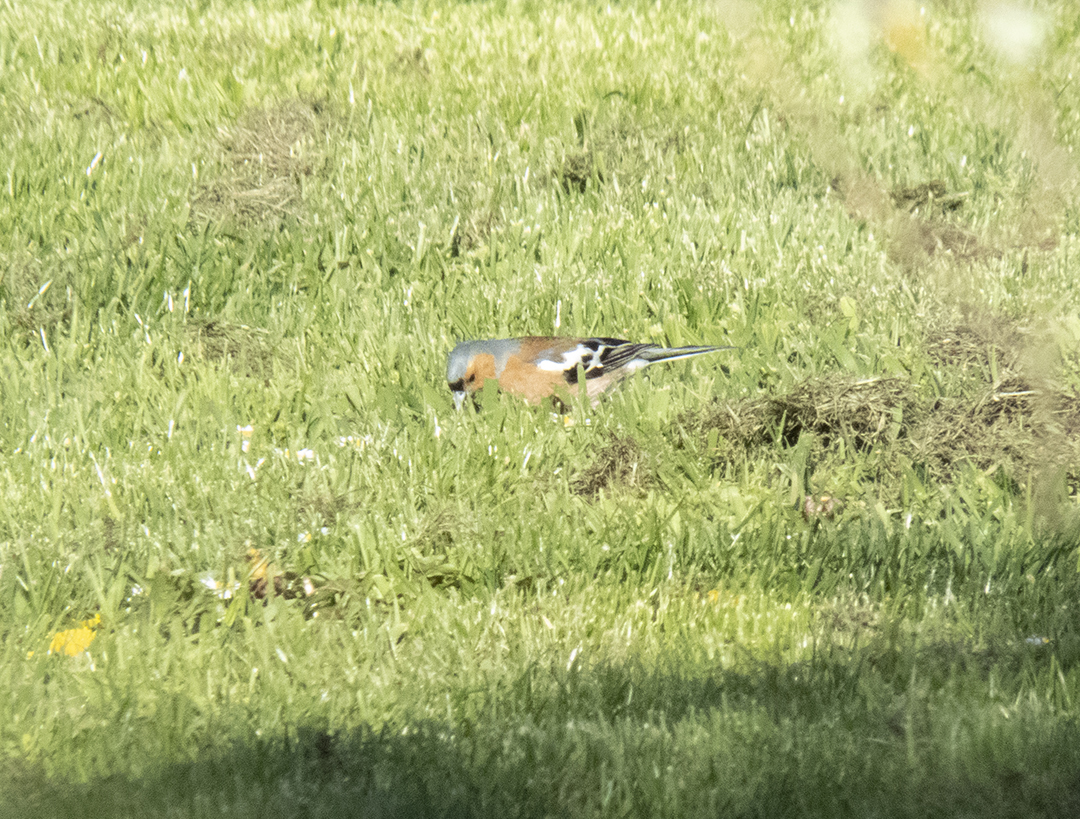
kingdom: Animalia
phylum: Chordata
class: Aves
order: Passeriformes
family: Fringillidae
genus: Fringilla
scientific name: Fringilla coelebs
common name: Common chaffinch
